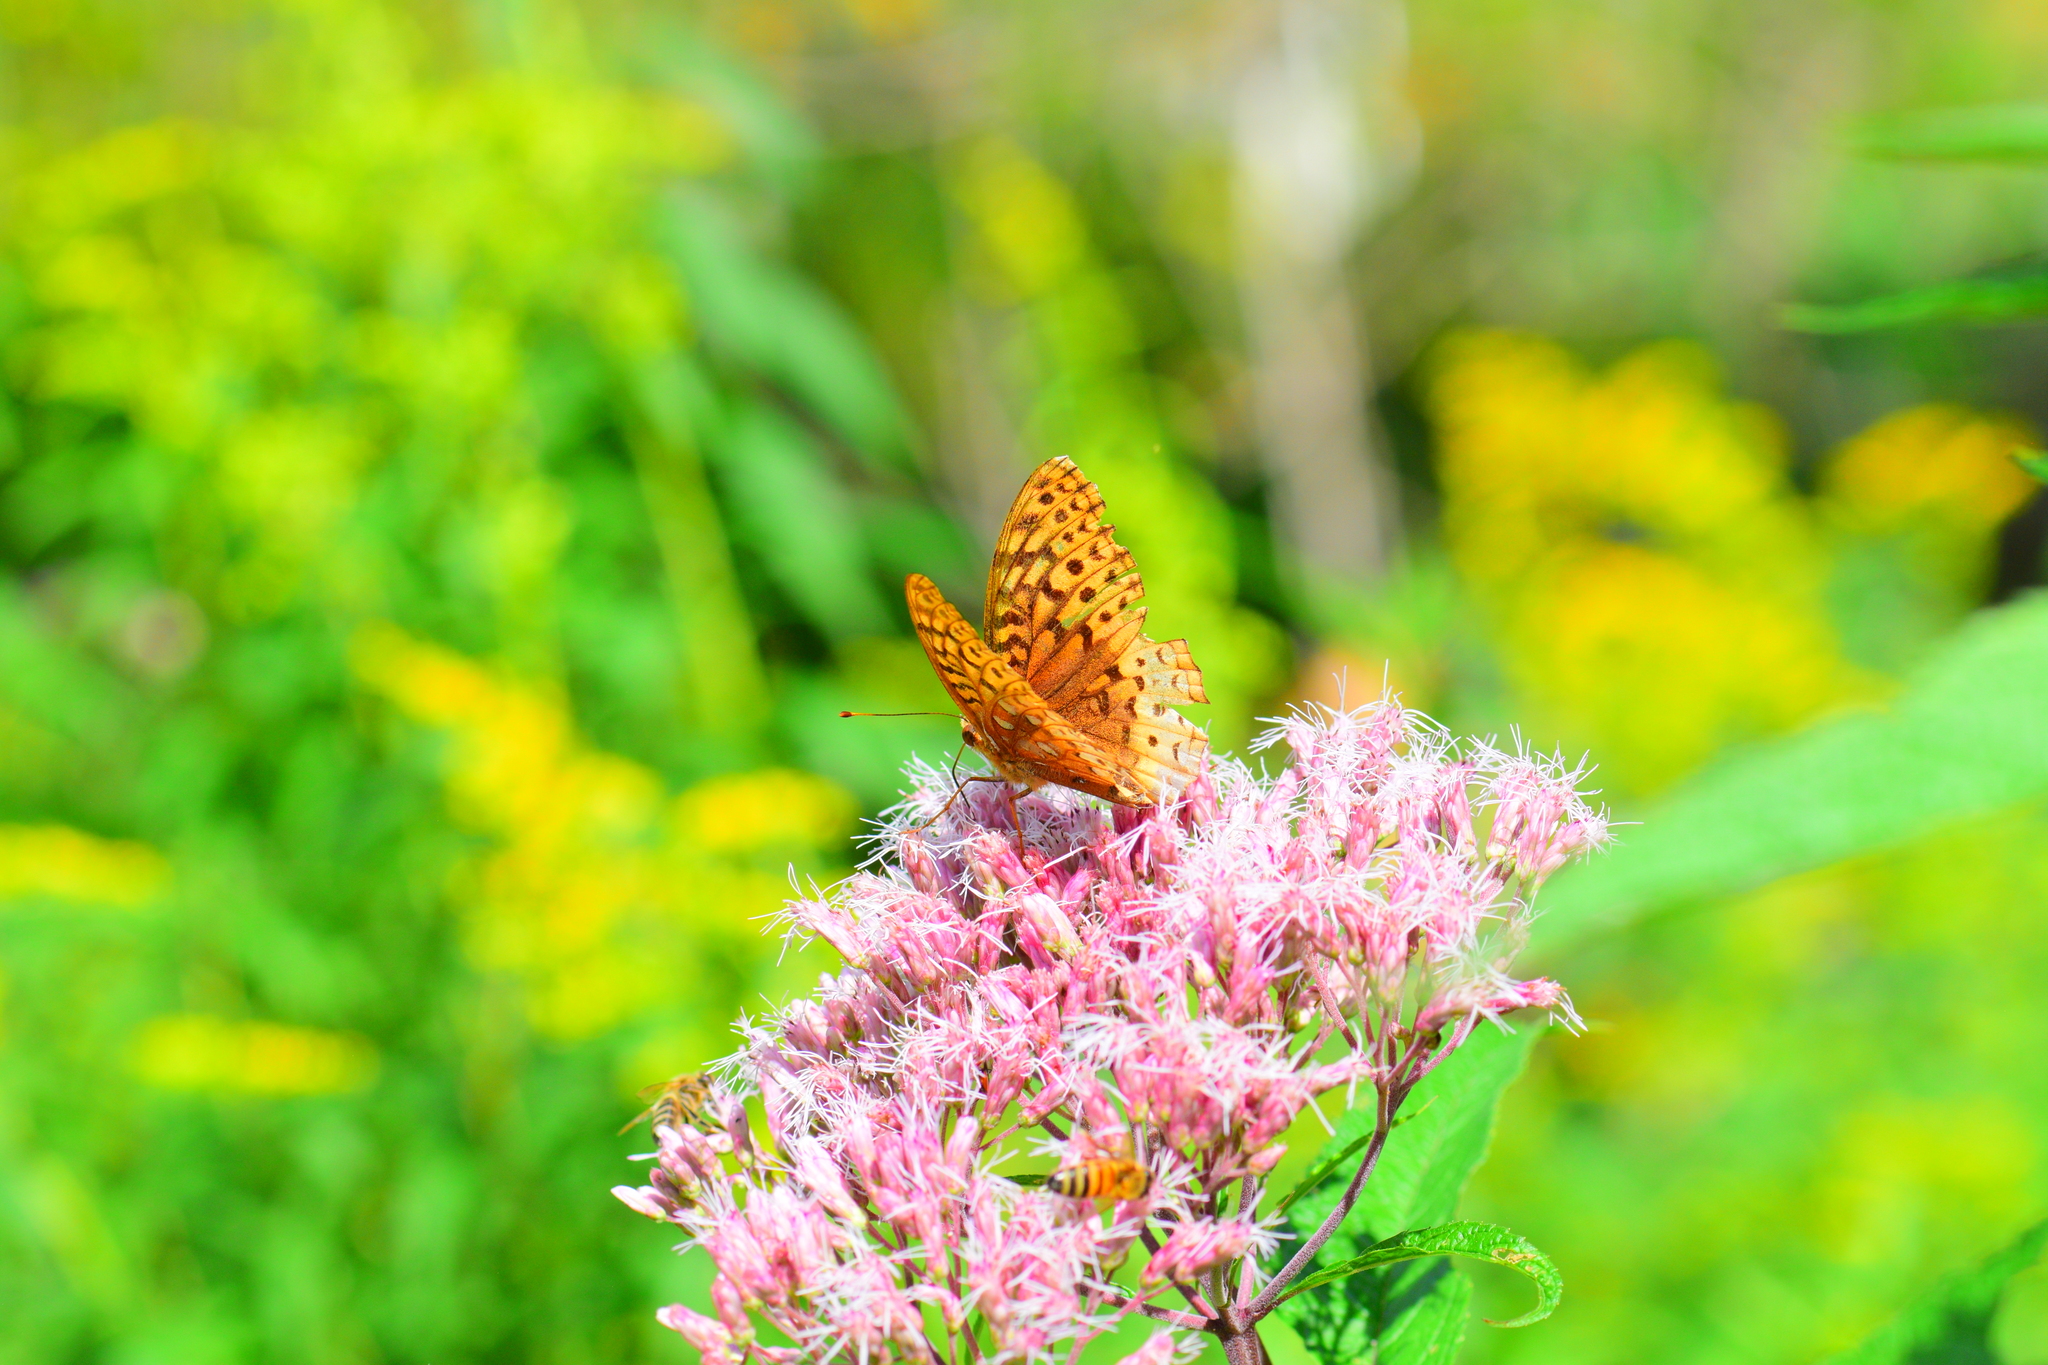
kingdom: Animalia
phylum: Arthropoda
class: Insecta
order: Lepidoptera
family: Nymphalidae
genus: Speyeria
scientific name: Speyeria cybele
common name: Great spangled fritillary
